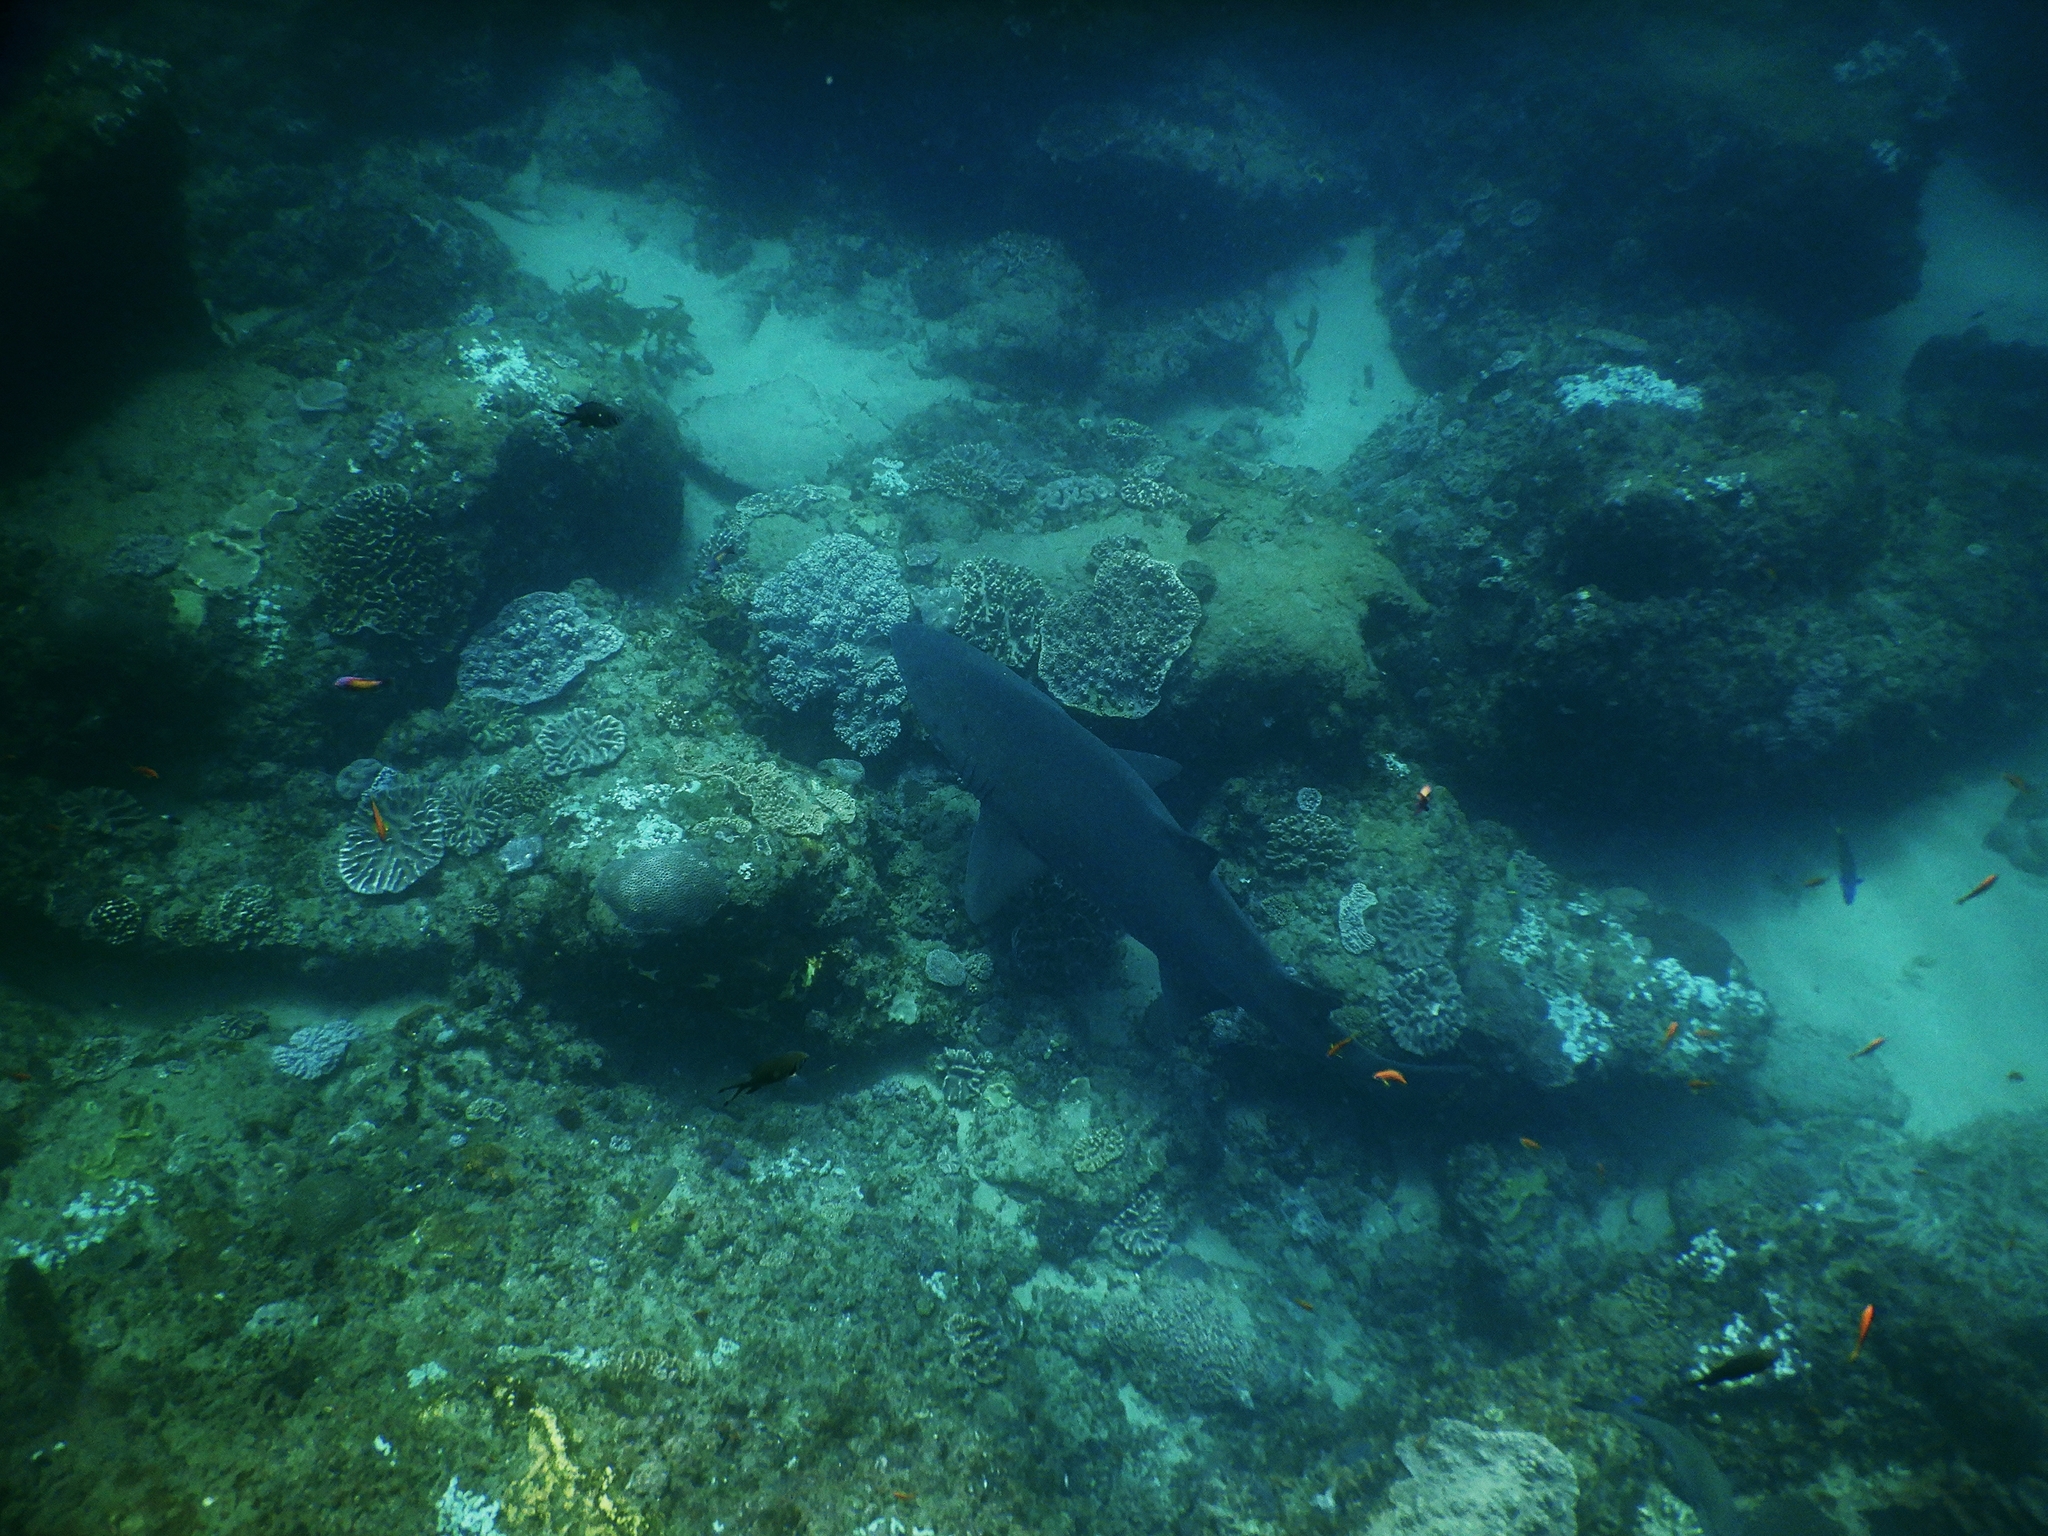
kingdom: Animalia
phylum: Chordata
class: Elasmobranchii
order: Lamniformes
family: Odontaspididae
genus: Carcharias
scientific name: Carcharias taurus
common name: Sand shark
